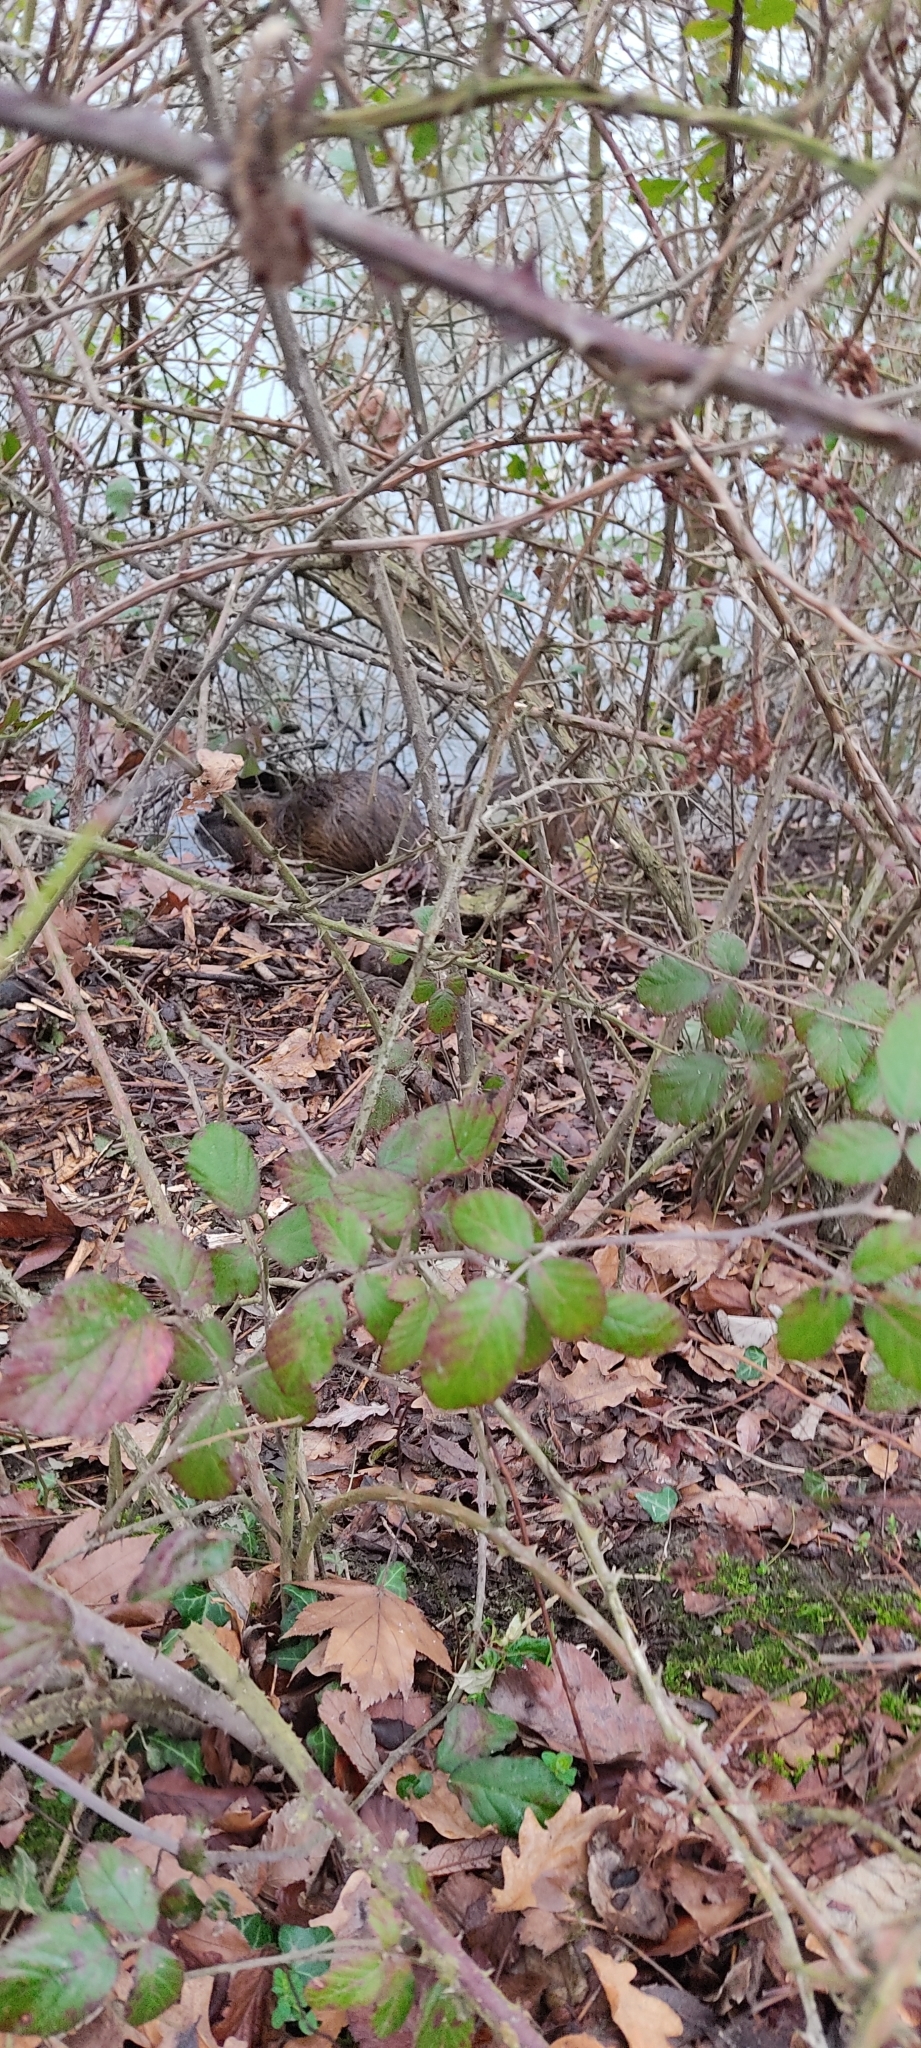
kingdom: Animalia
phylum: Chordata
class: Mammalia
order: Rodentia
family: Myocastoridae
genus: Myocastor
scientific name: Myocastor coypus
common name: Coypu
